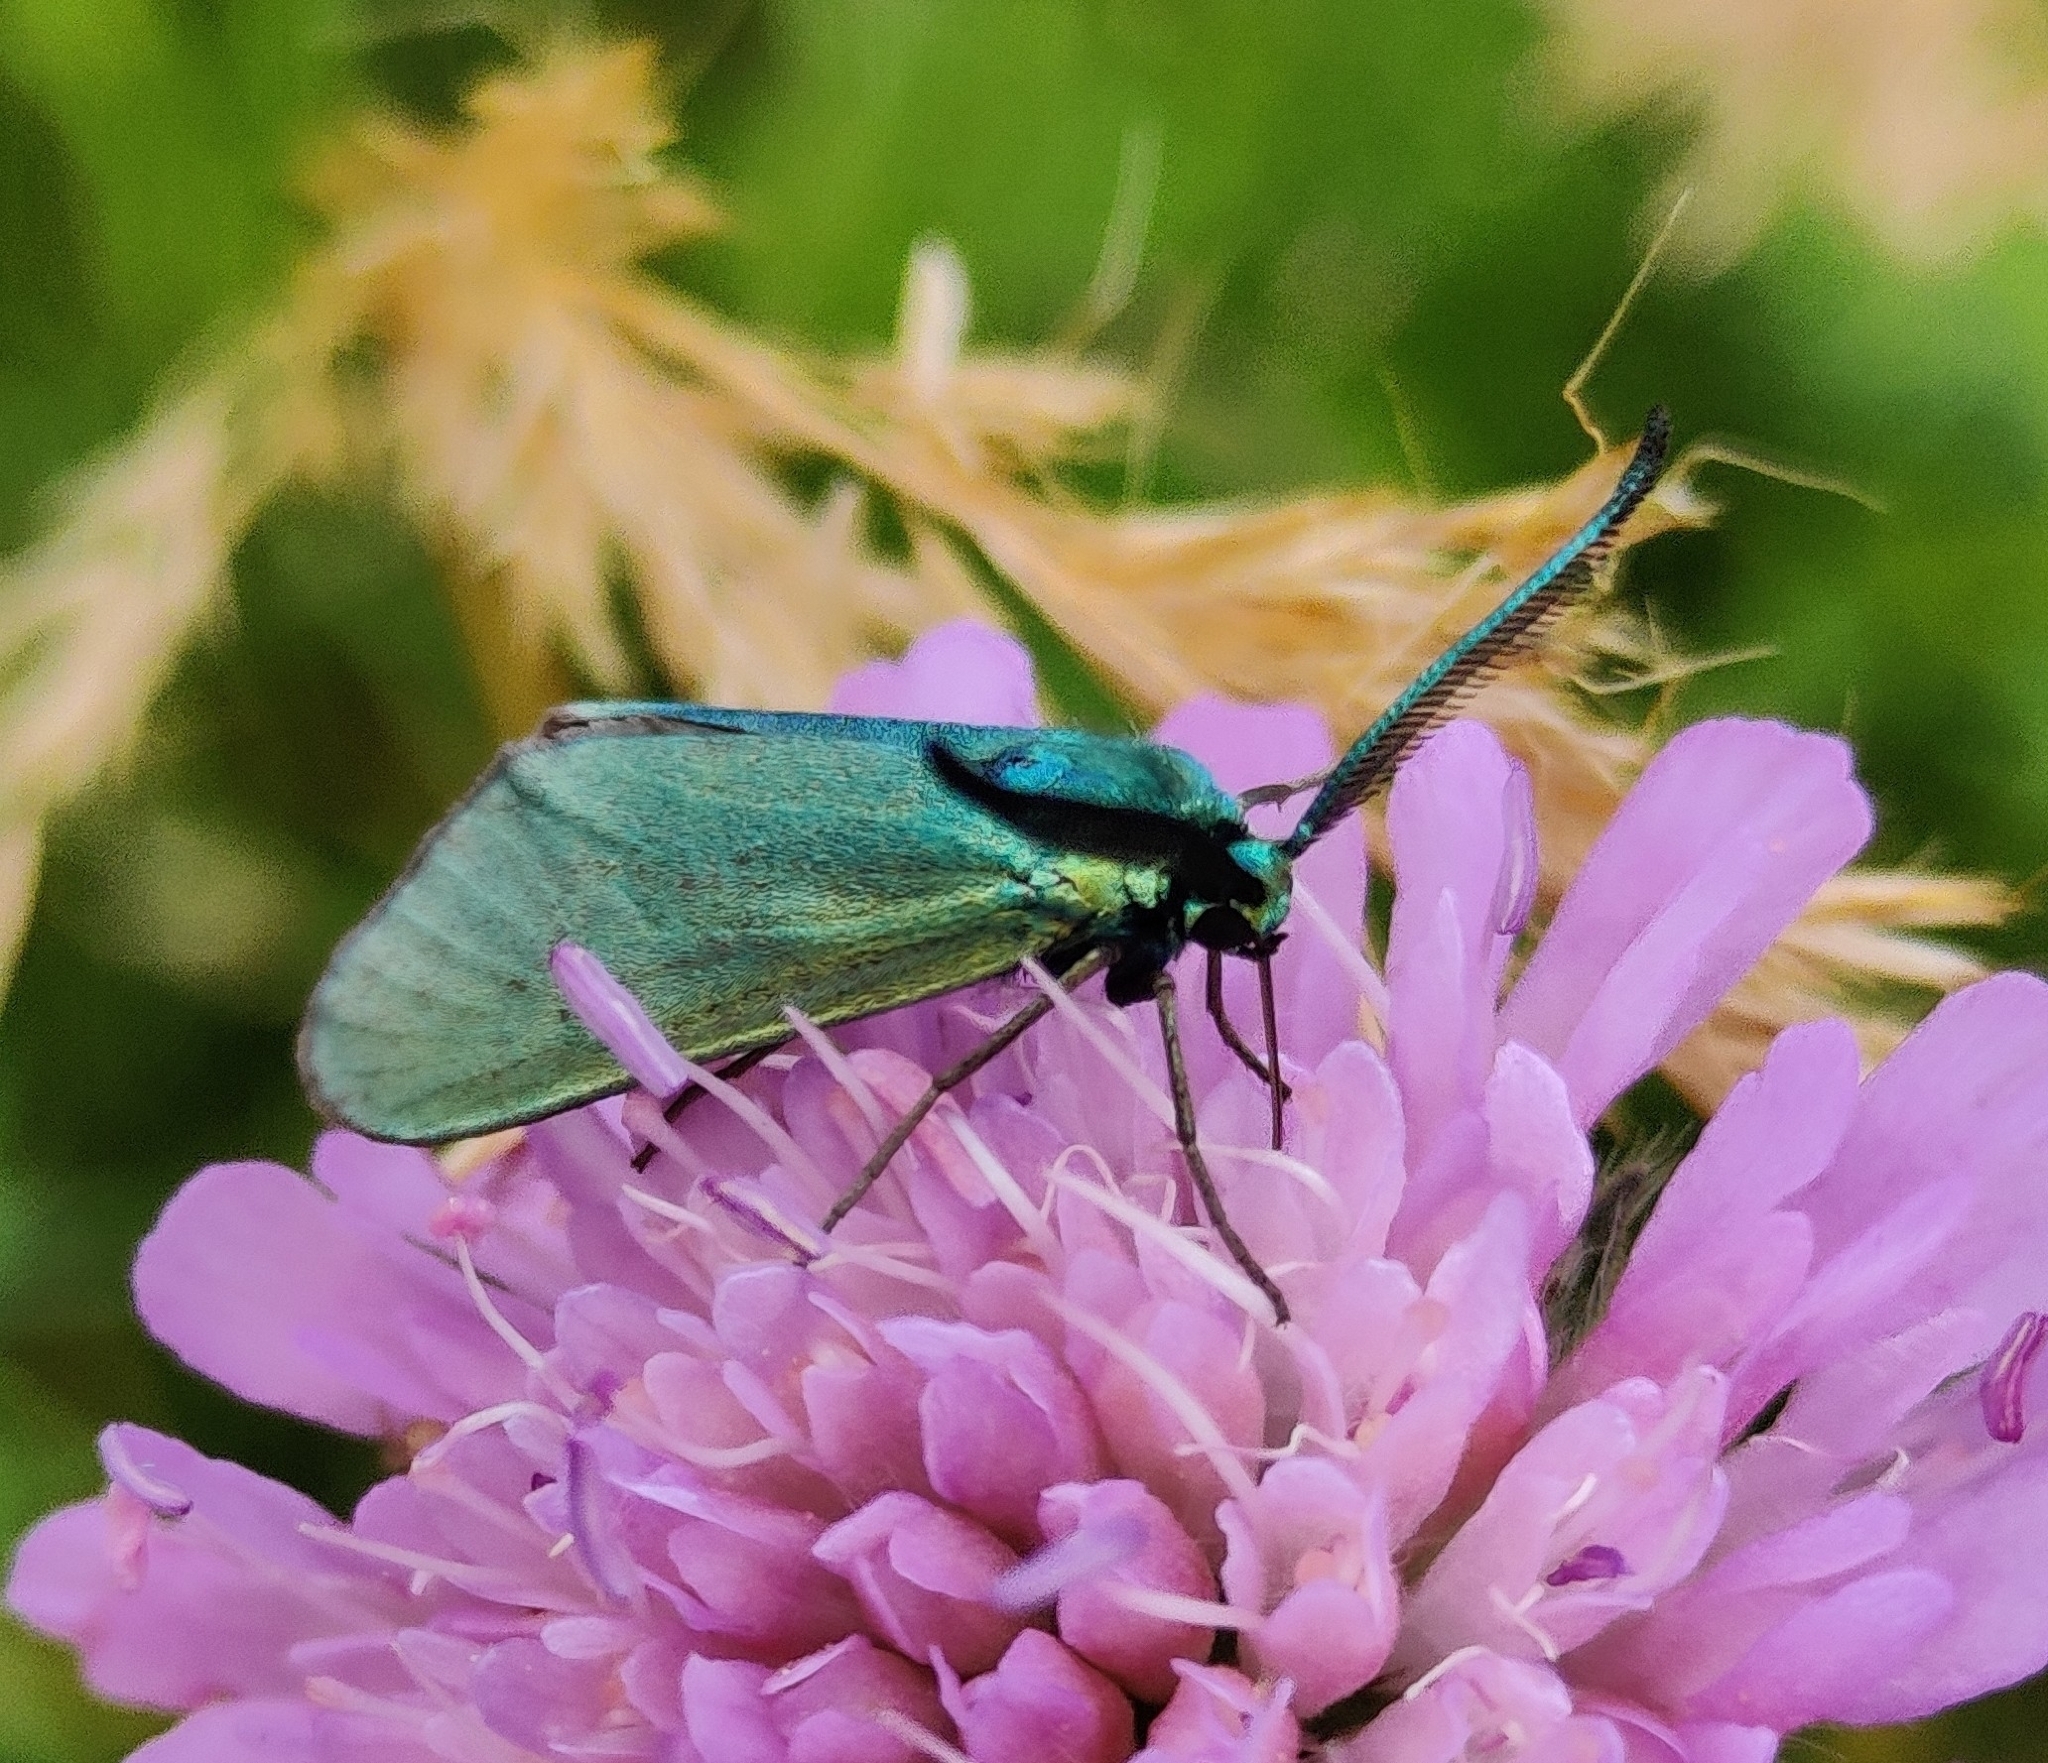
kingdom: Animalia
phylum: Arthropoda
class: Insecta
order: Lepidoptera
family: Zygaenidae
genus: Adscita
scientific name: Adscita statices
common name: Forester
